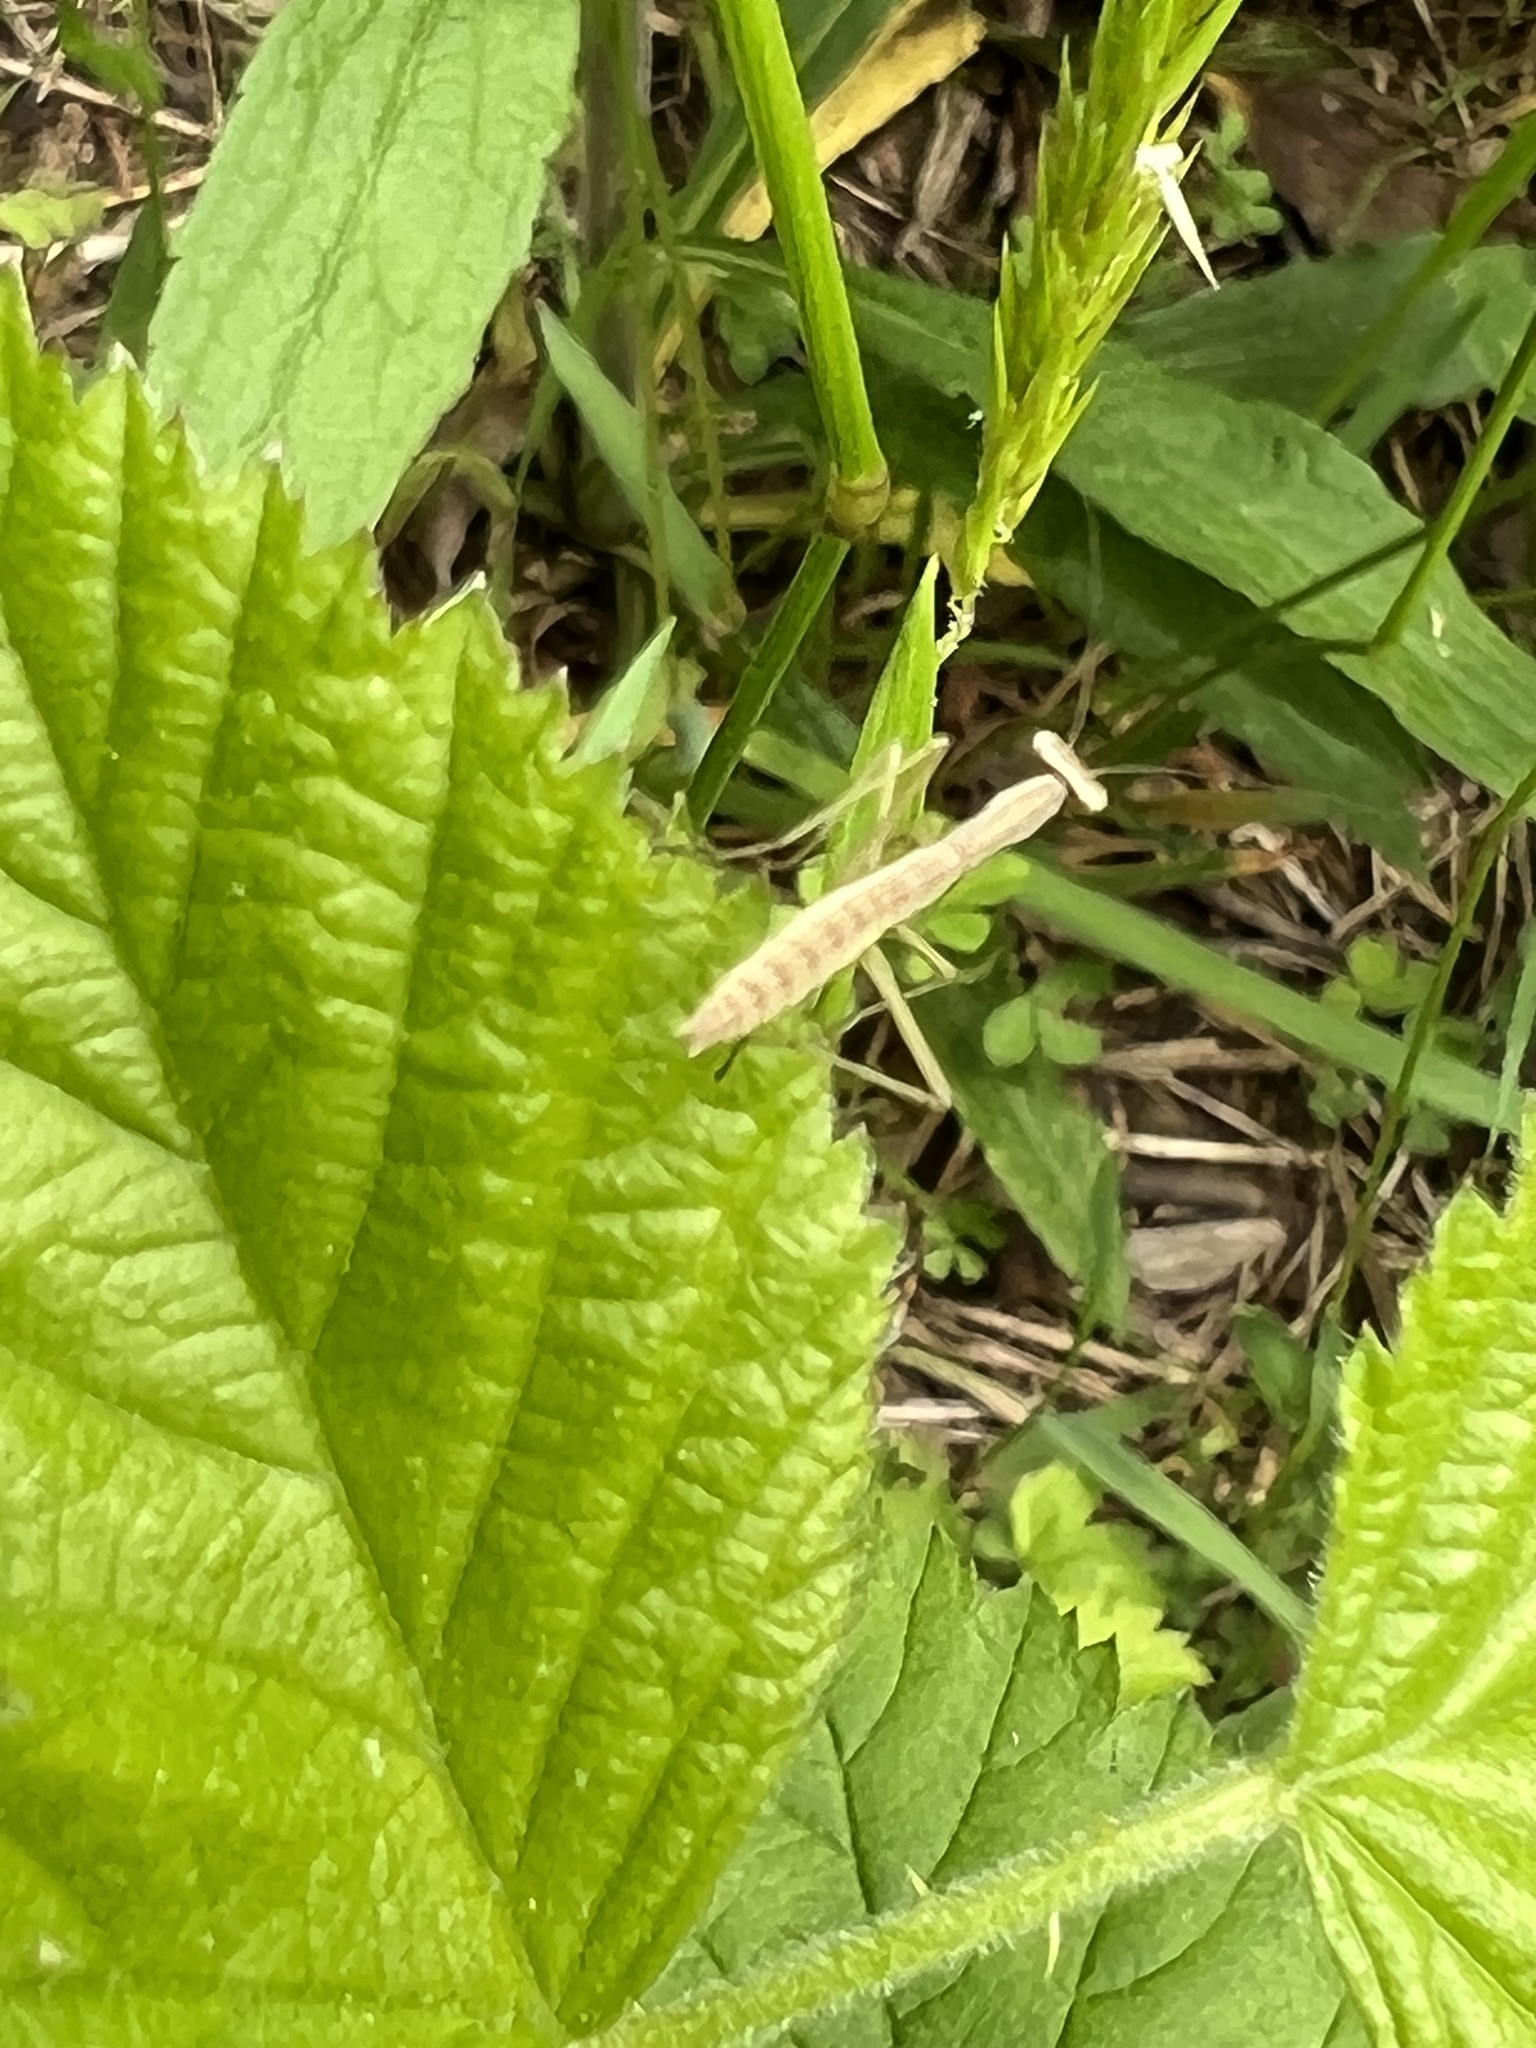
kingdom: Animalia
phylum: Arthropoda
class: Insecta
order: Mantodea
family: Mantidae
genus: Tenodera
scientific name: Tenodera sinensis
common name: Chinese mantis
